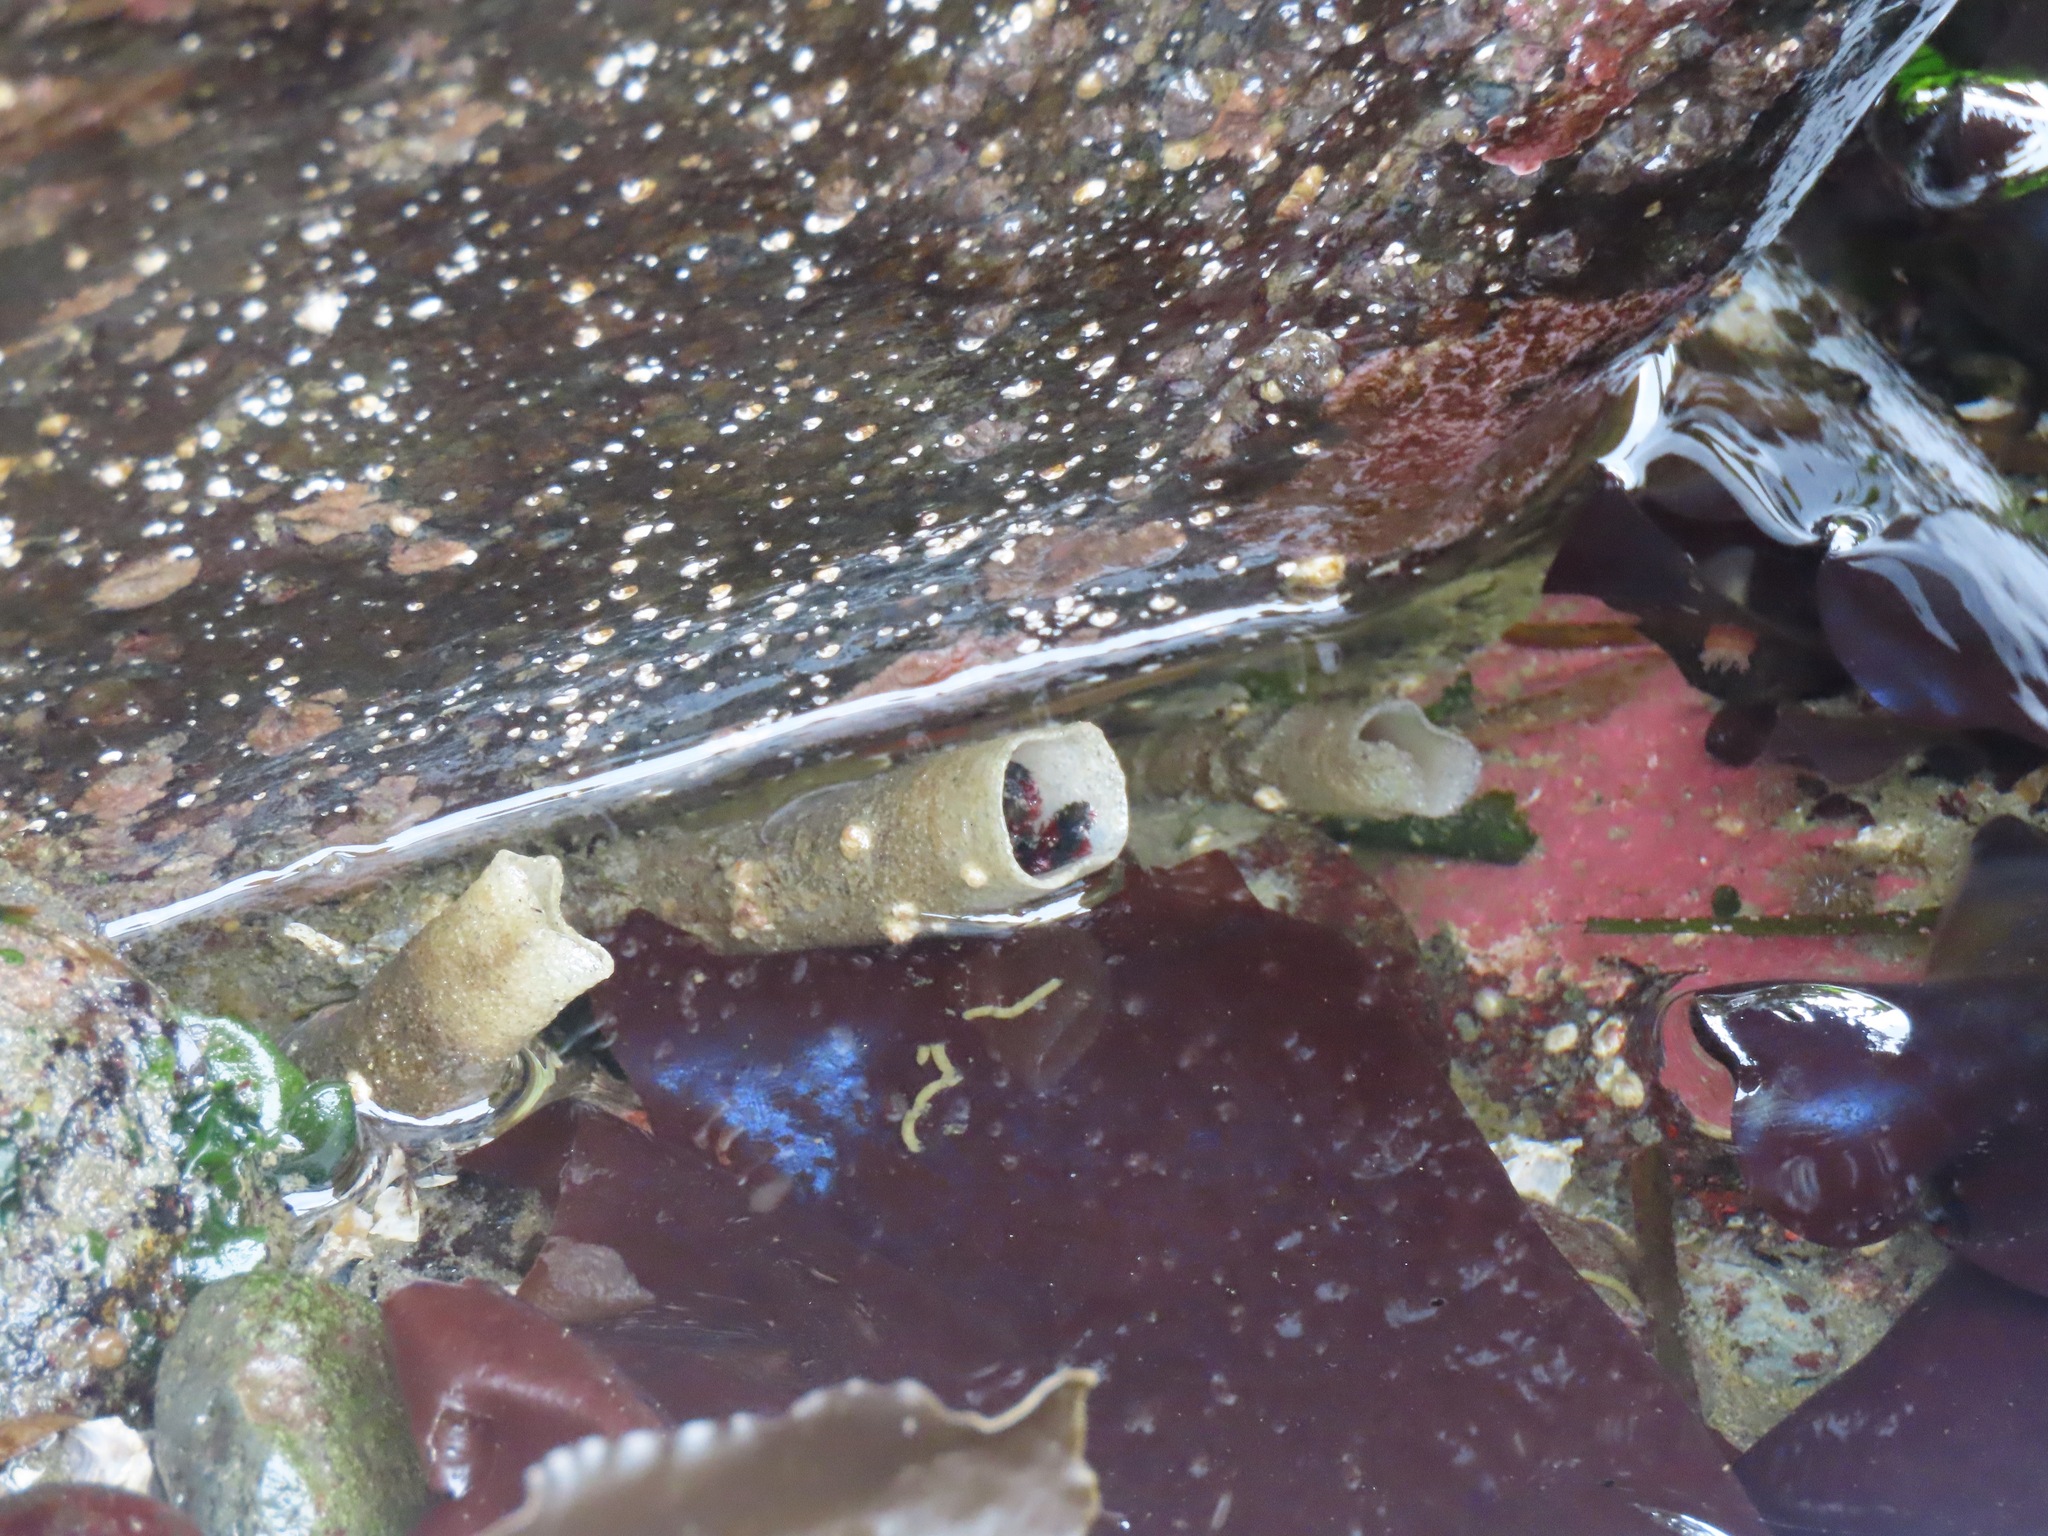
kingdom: Animalia
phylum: Annelida
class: Polychaeta
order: Sabellida
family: Sabellidae
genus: Eudistylia
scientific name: Eudistylia vancouveri
